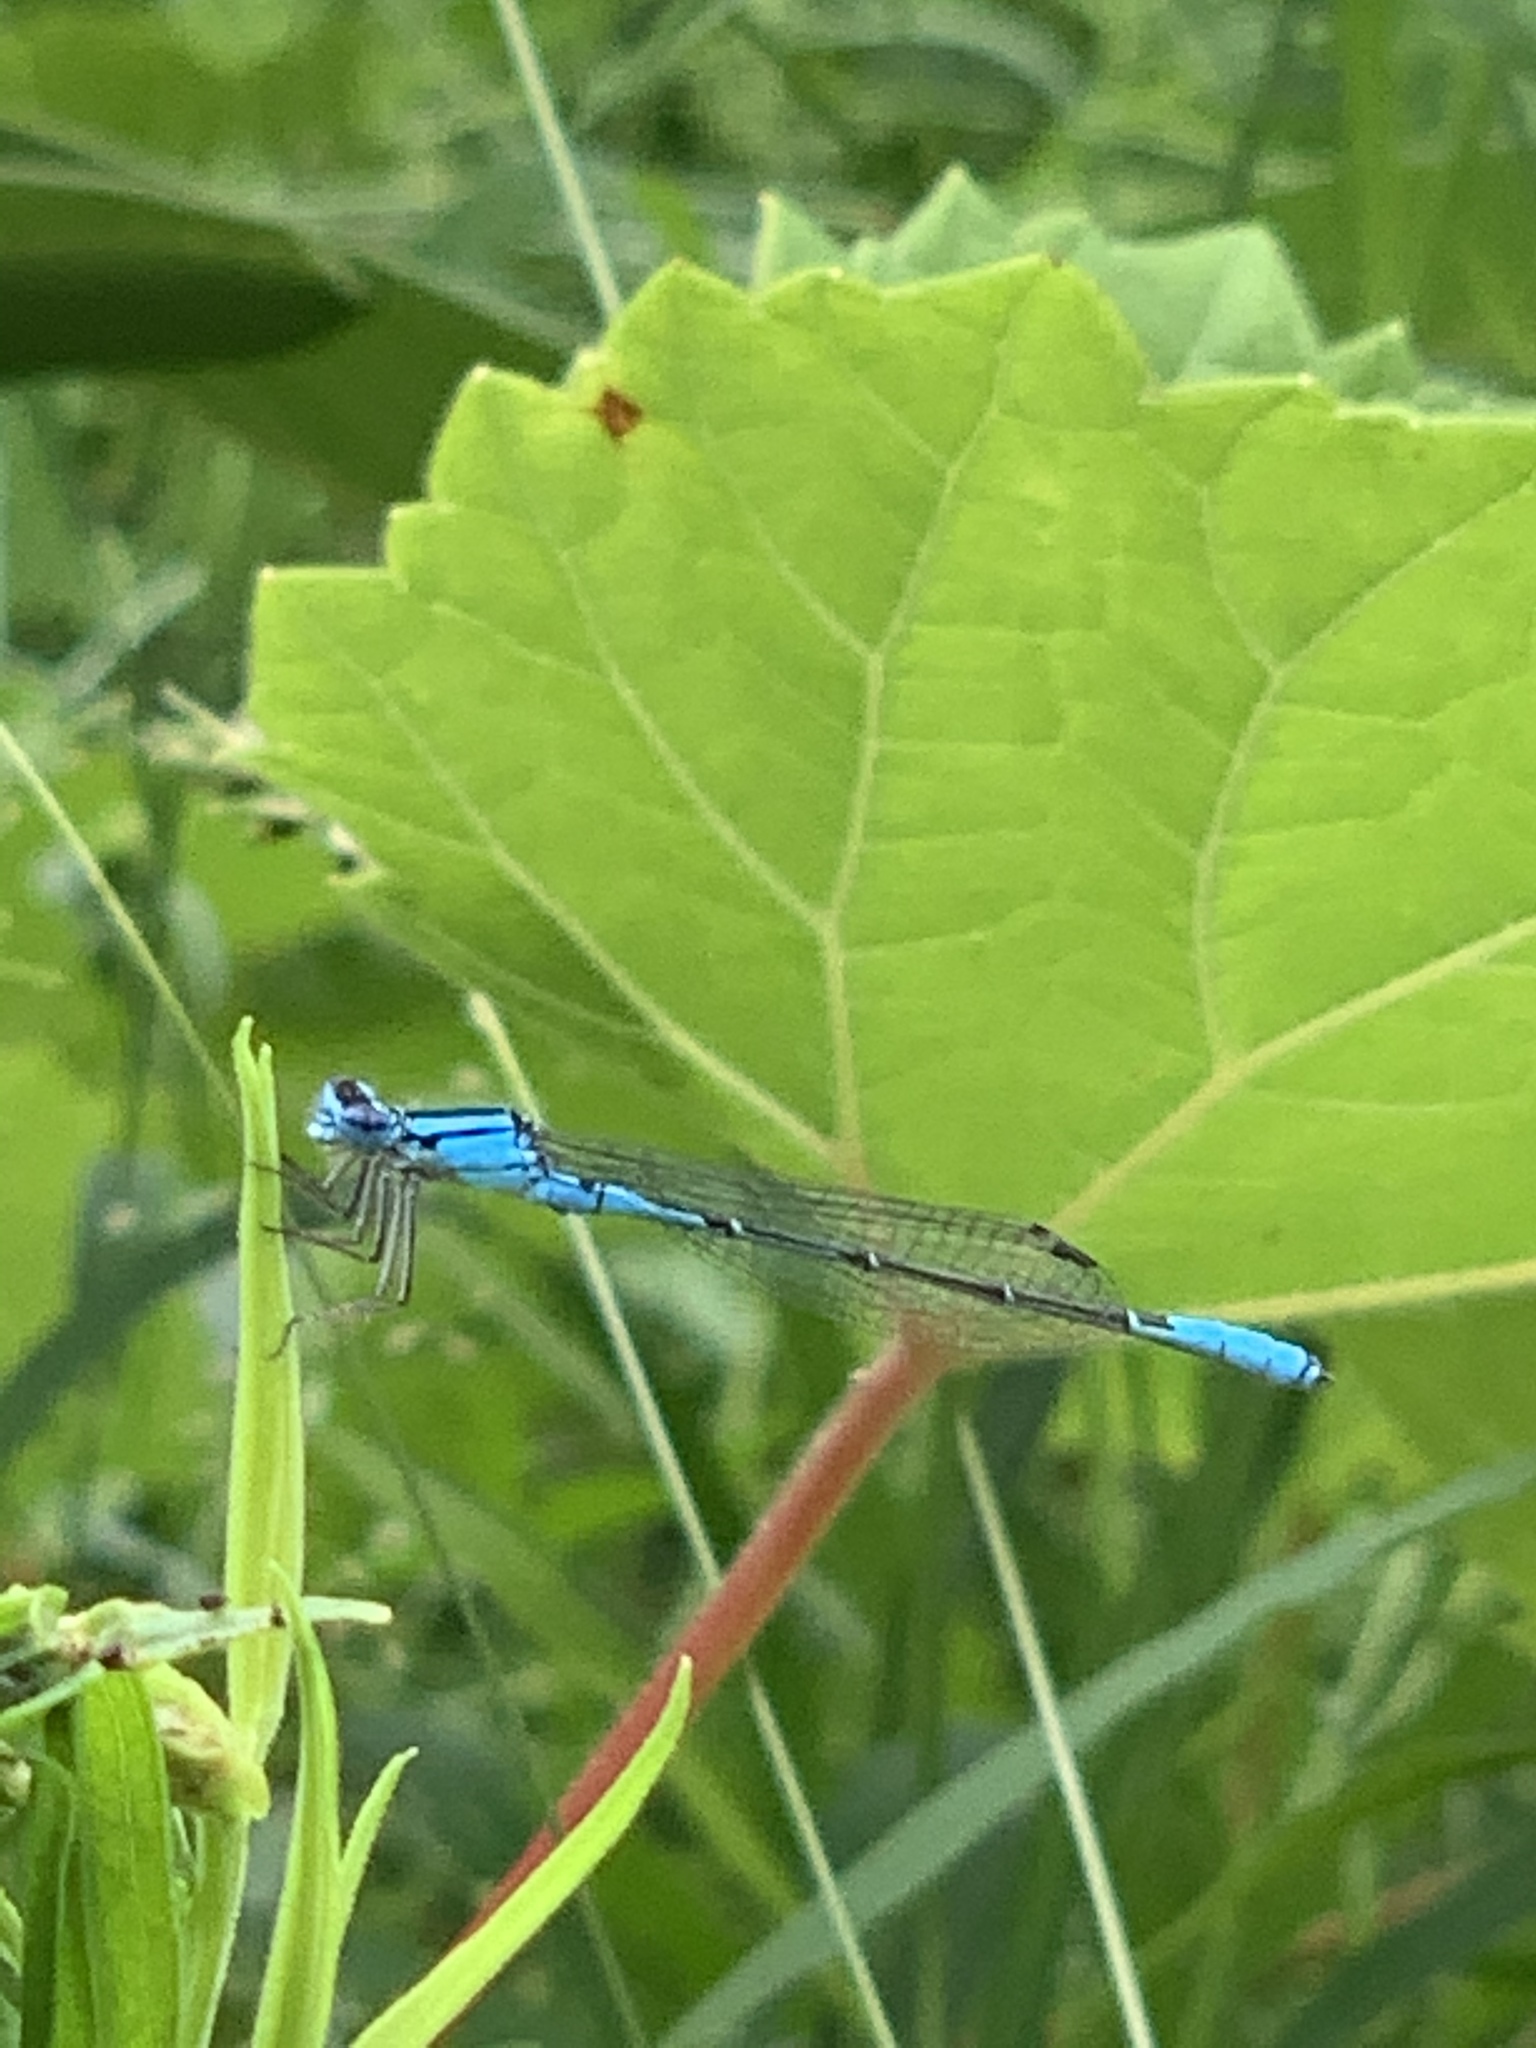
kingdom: Animalia
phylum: Arthropoda
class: Insecta
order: Odonata
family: Coenagrionidae
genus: Enallagma
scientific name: Enallagma aspersum
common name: Azure bluet
